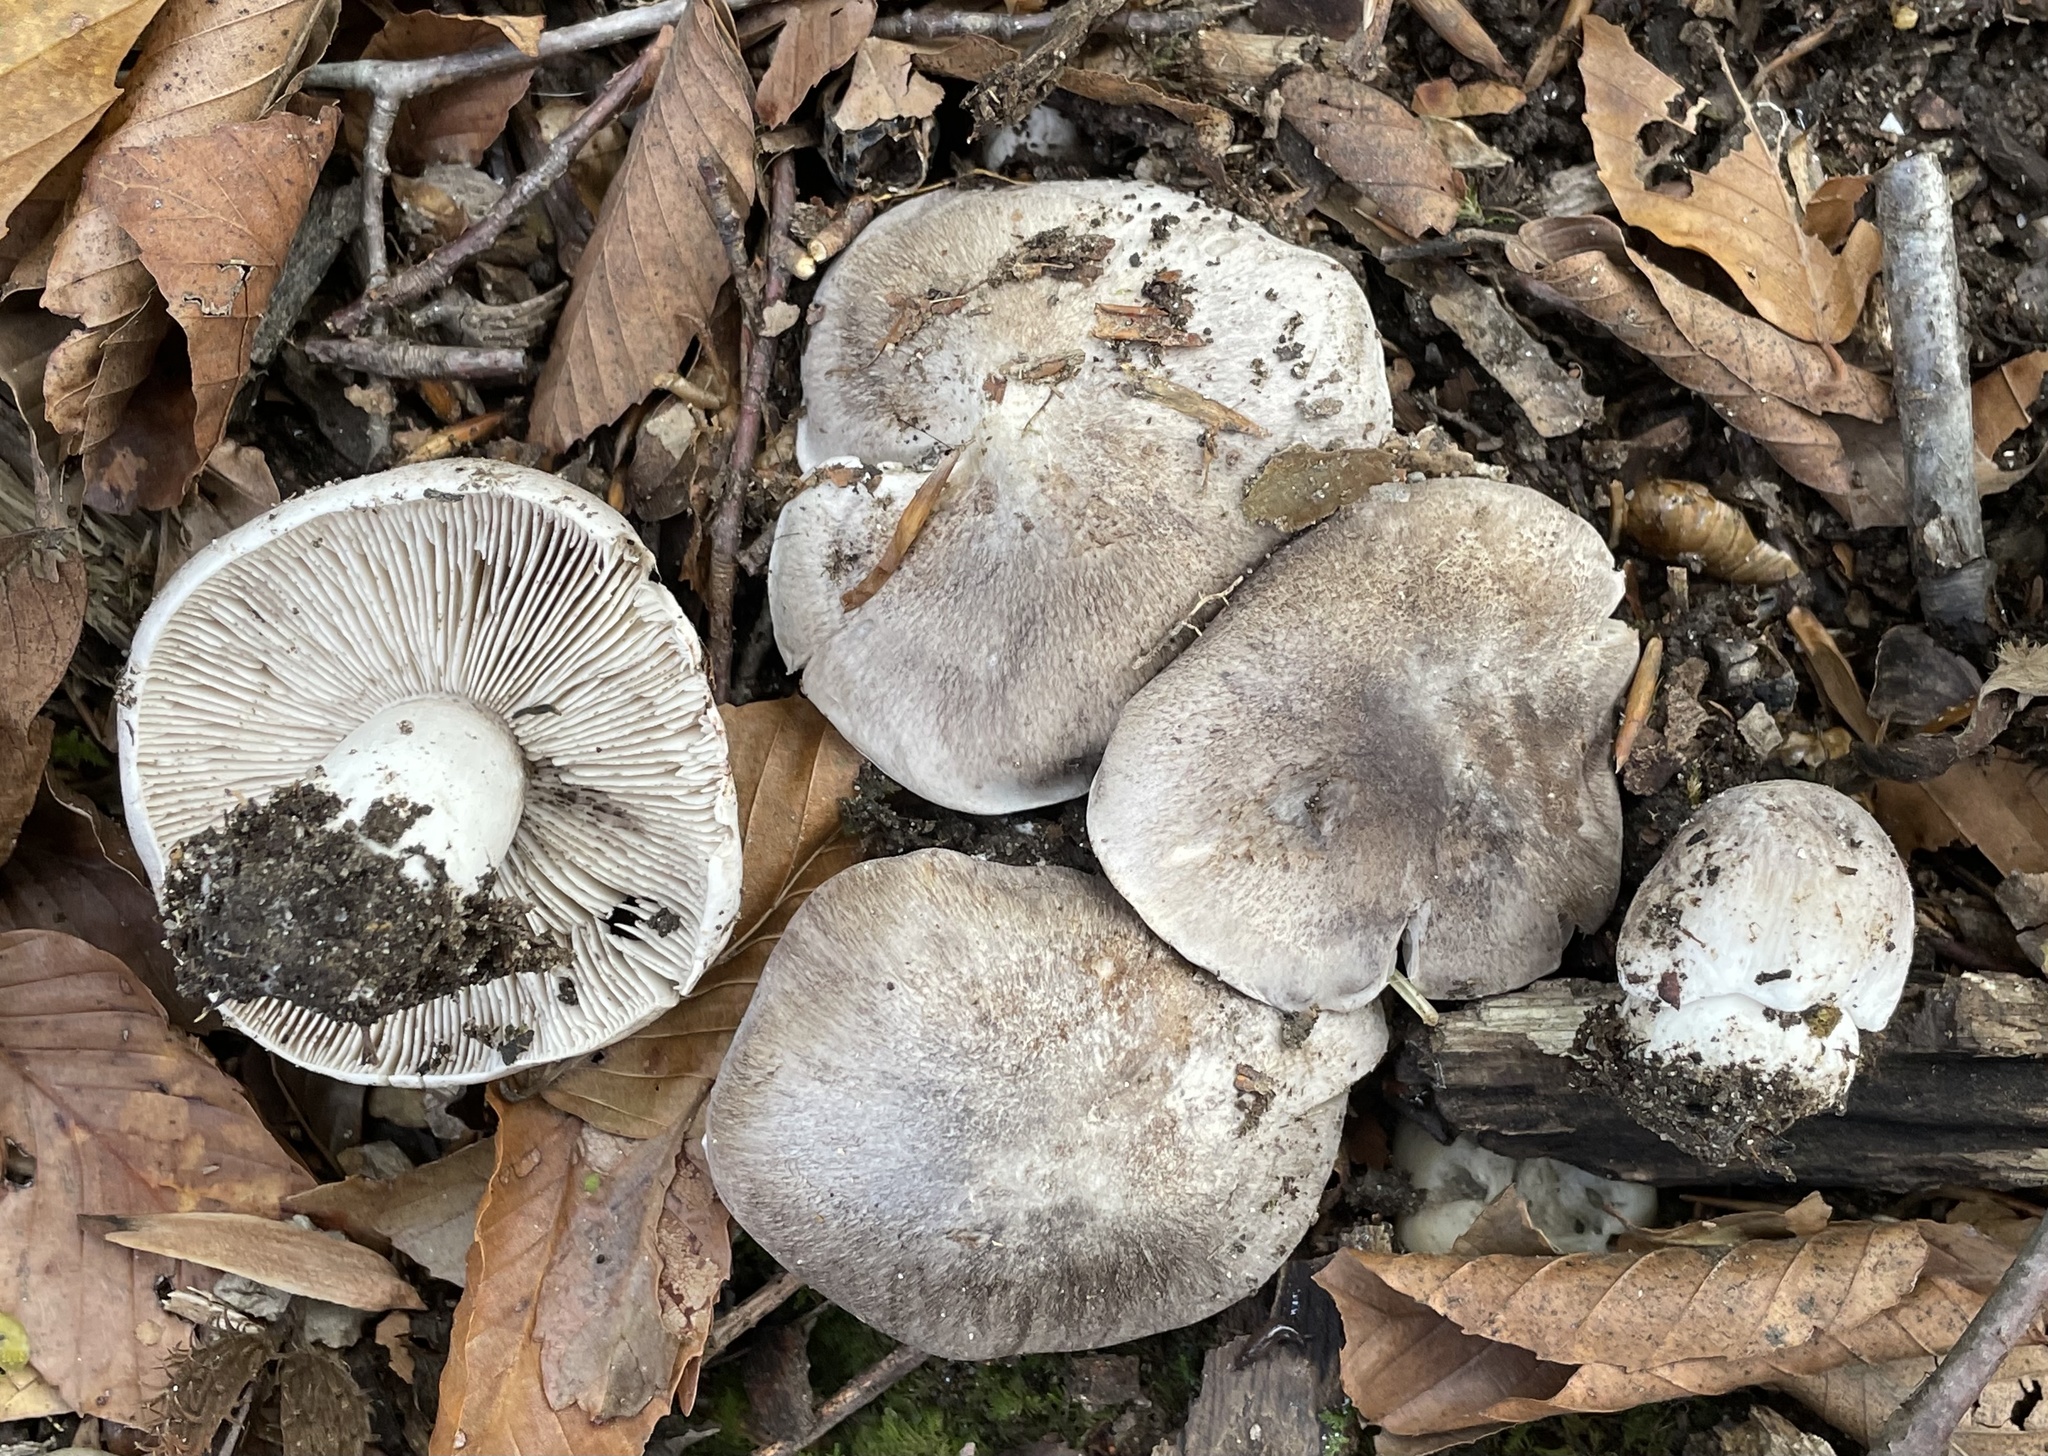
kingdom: Fungi
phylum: Basidiomycota
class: Agaricomycetes
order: Agaricales
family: Tricholomataceae
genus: Tricholoma
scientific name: Tricholoma pullum
